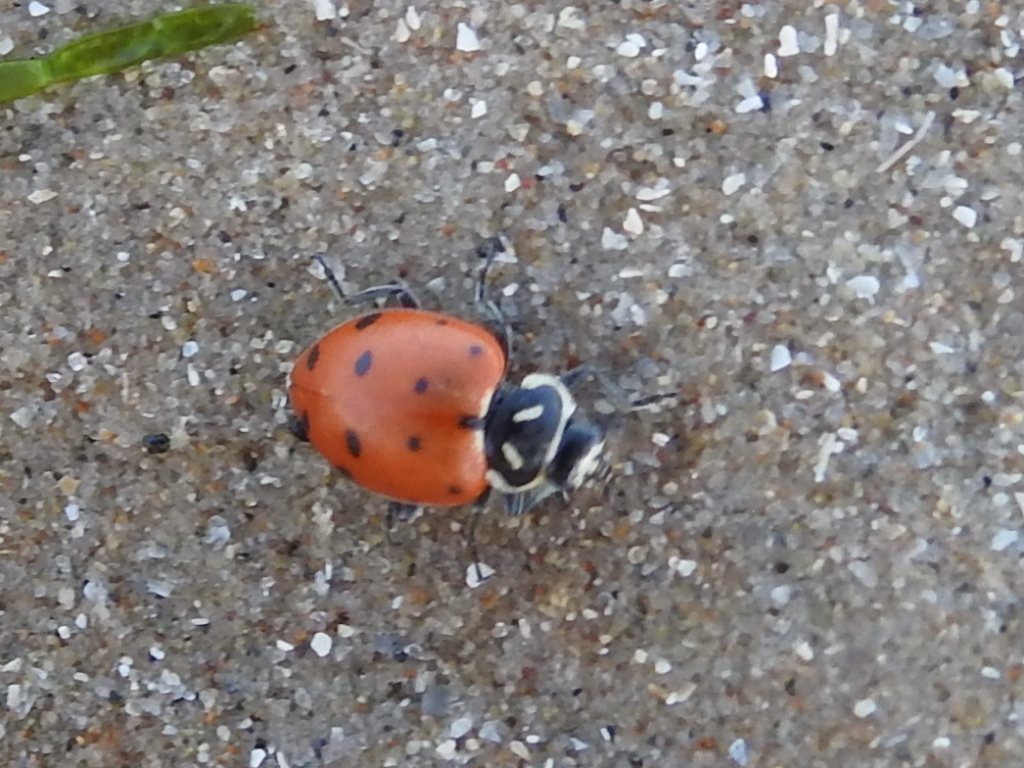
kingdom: Animalia
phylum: Arthropoda
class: Insecta
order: Coleoptera
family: Coccinellidae
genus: Hippodamia
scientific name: Hippodamia convergens
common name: Convergent lady beetle
